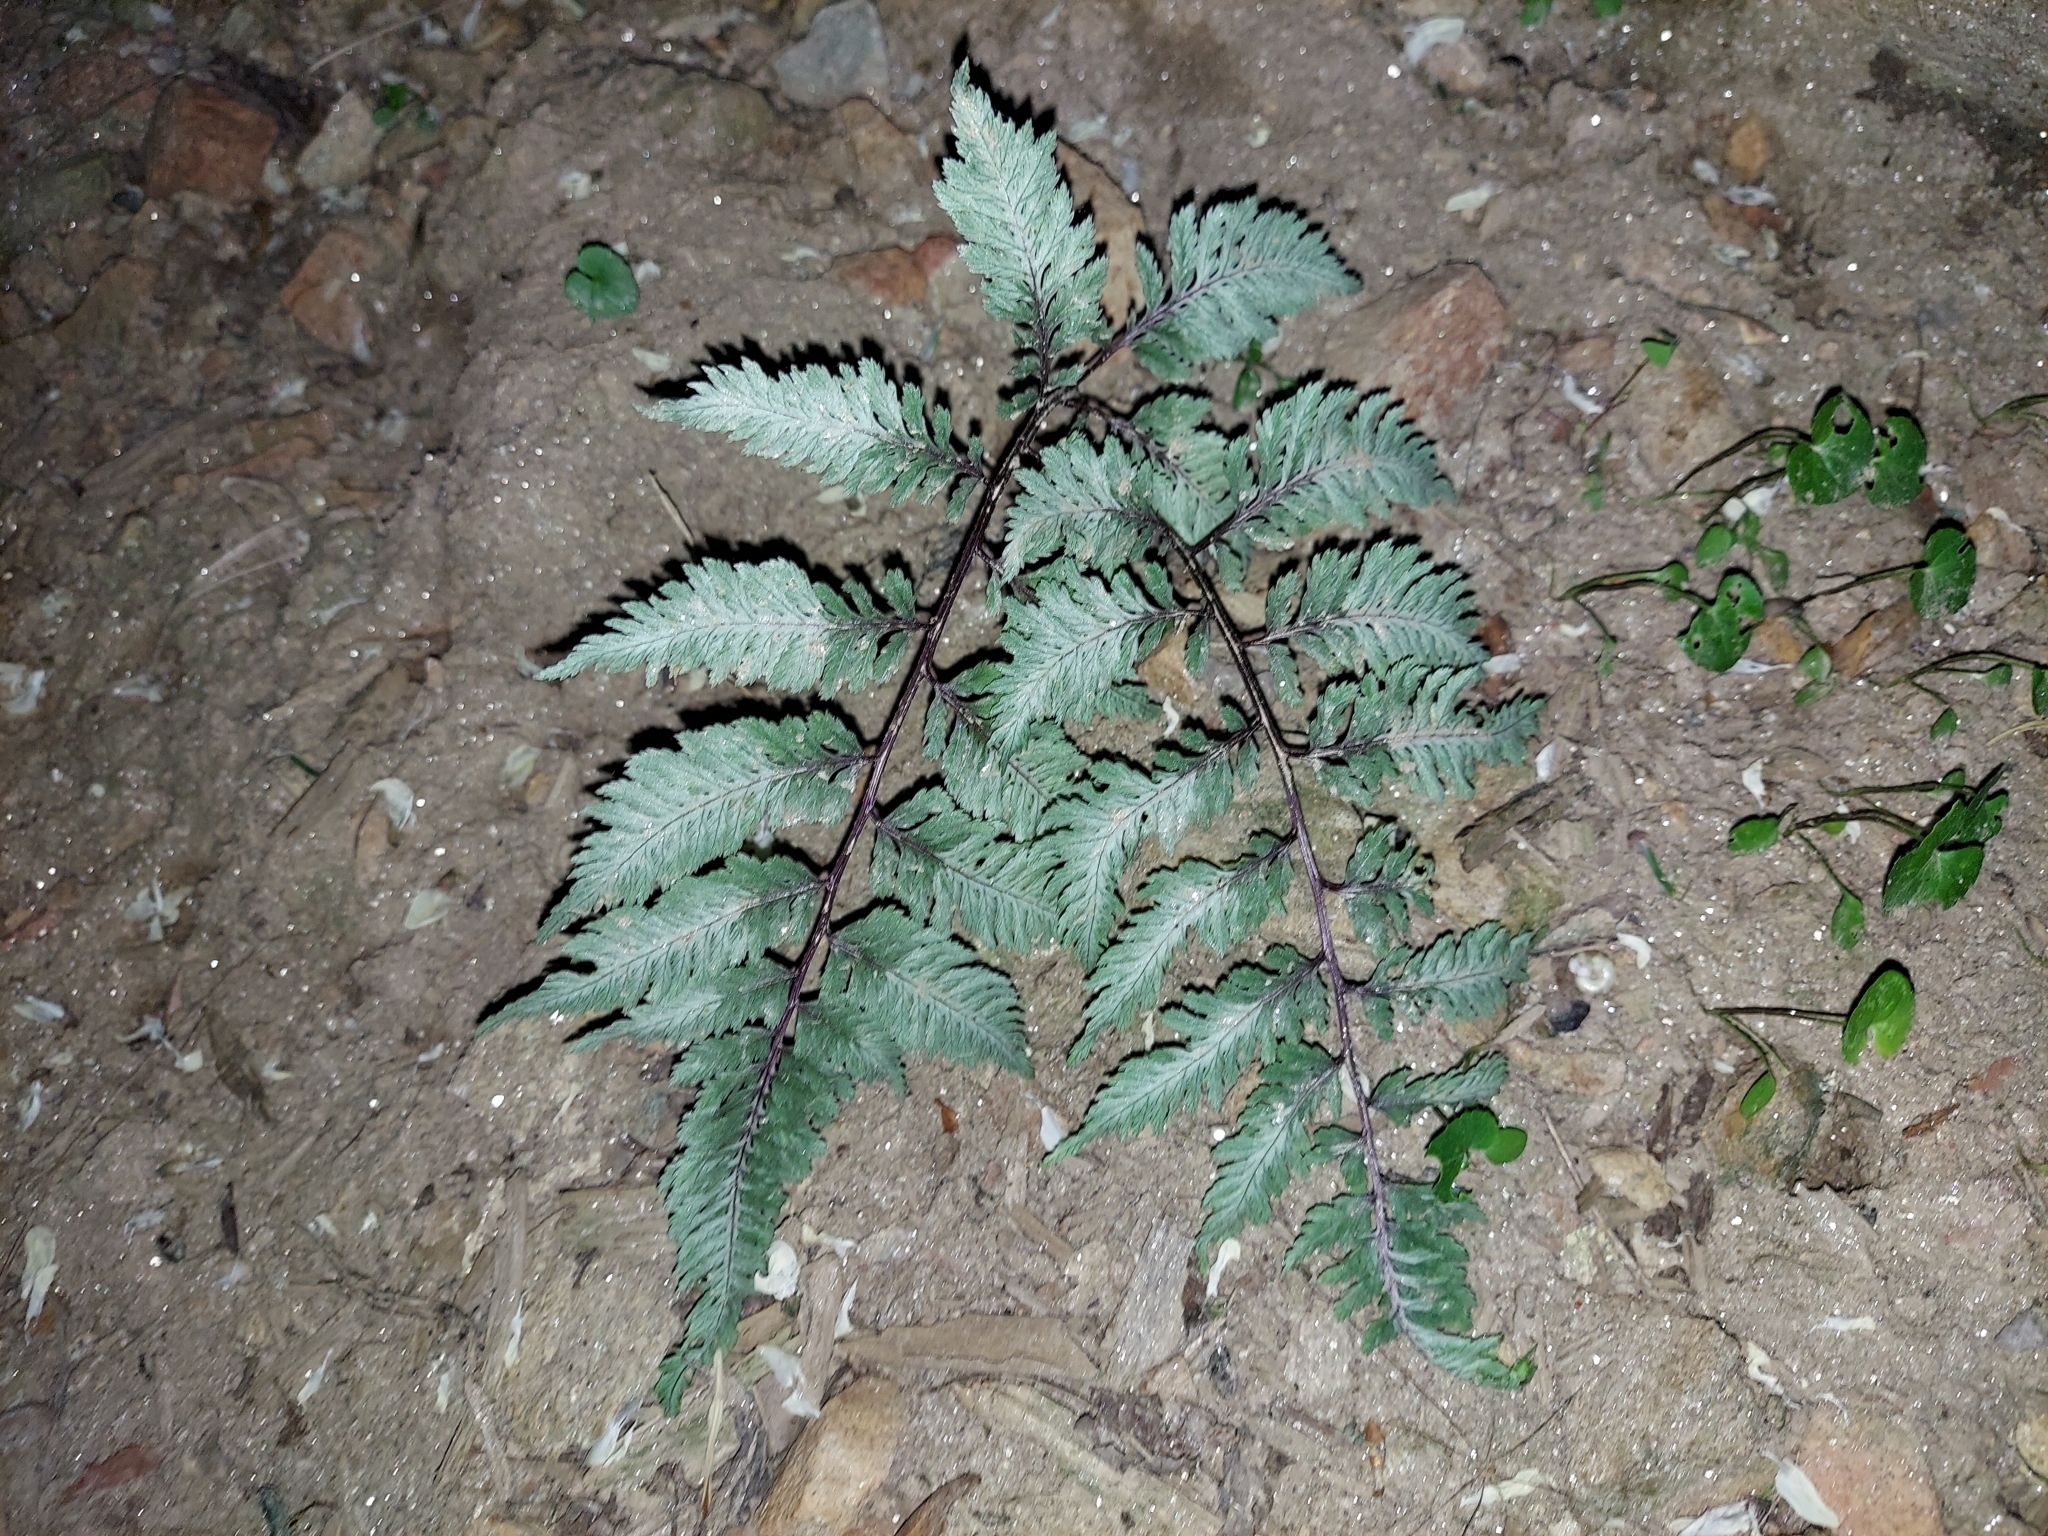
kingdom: Plantae
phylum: Tracheophyta
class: Polypodiopsida
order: Polypodiales
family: Athyriaceae
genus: Anisocampium
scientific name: Anisocampium niponicum
